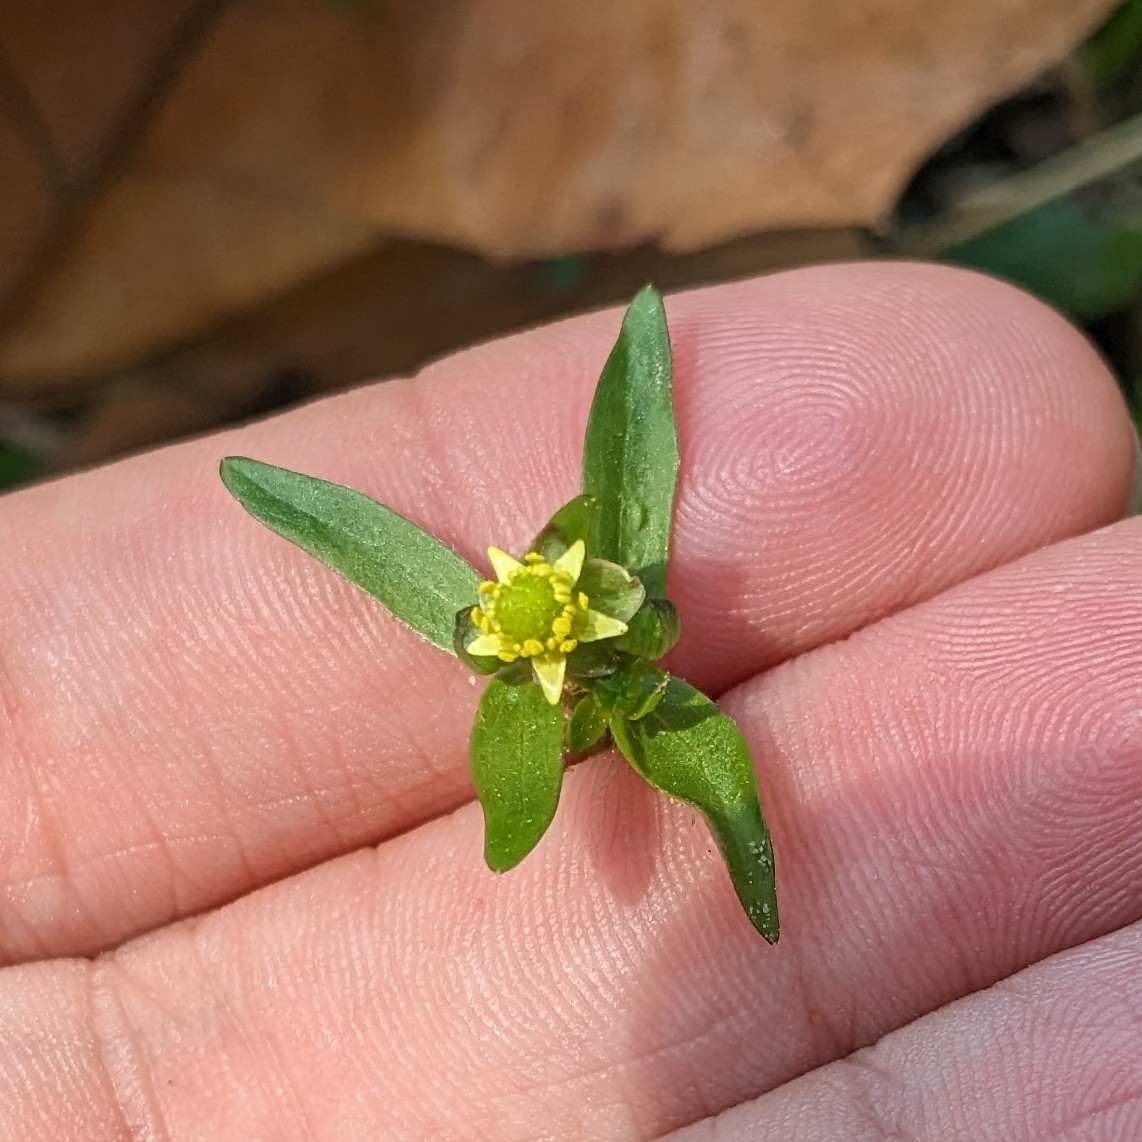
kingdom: Plantae
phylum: Tracheophyta
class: Magnoliopsida
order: Ranunculales
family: Ranunculaceae
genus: Ranunculus
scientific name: Ranunculus abortivus
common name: Early wood buttercup
